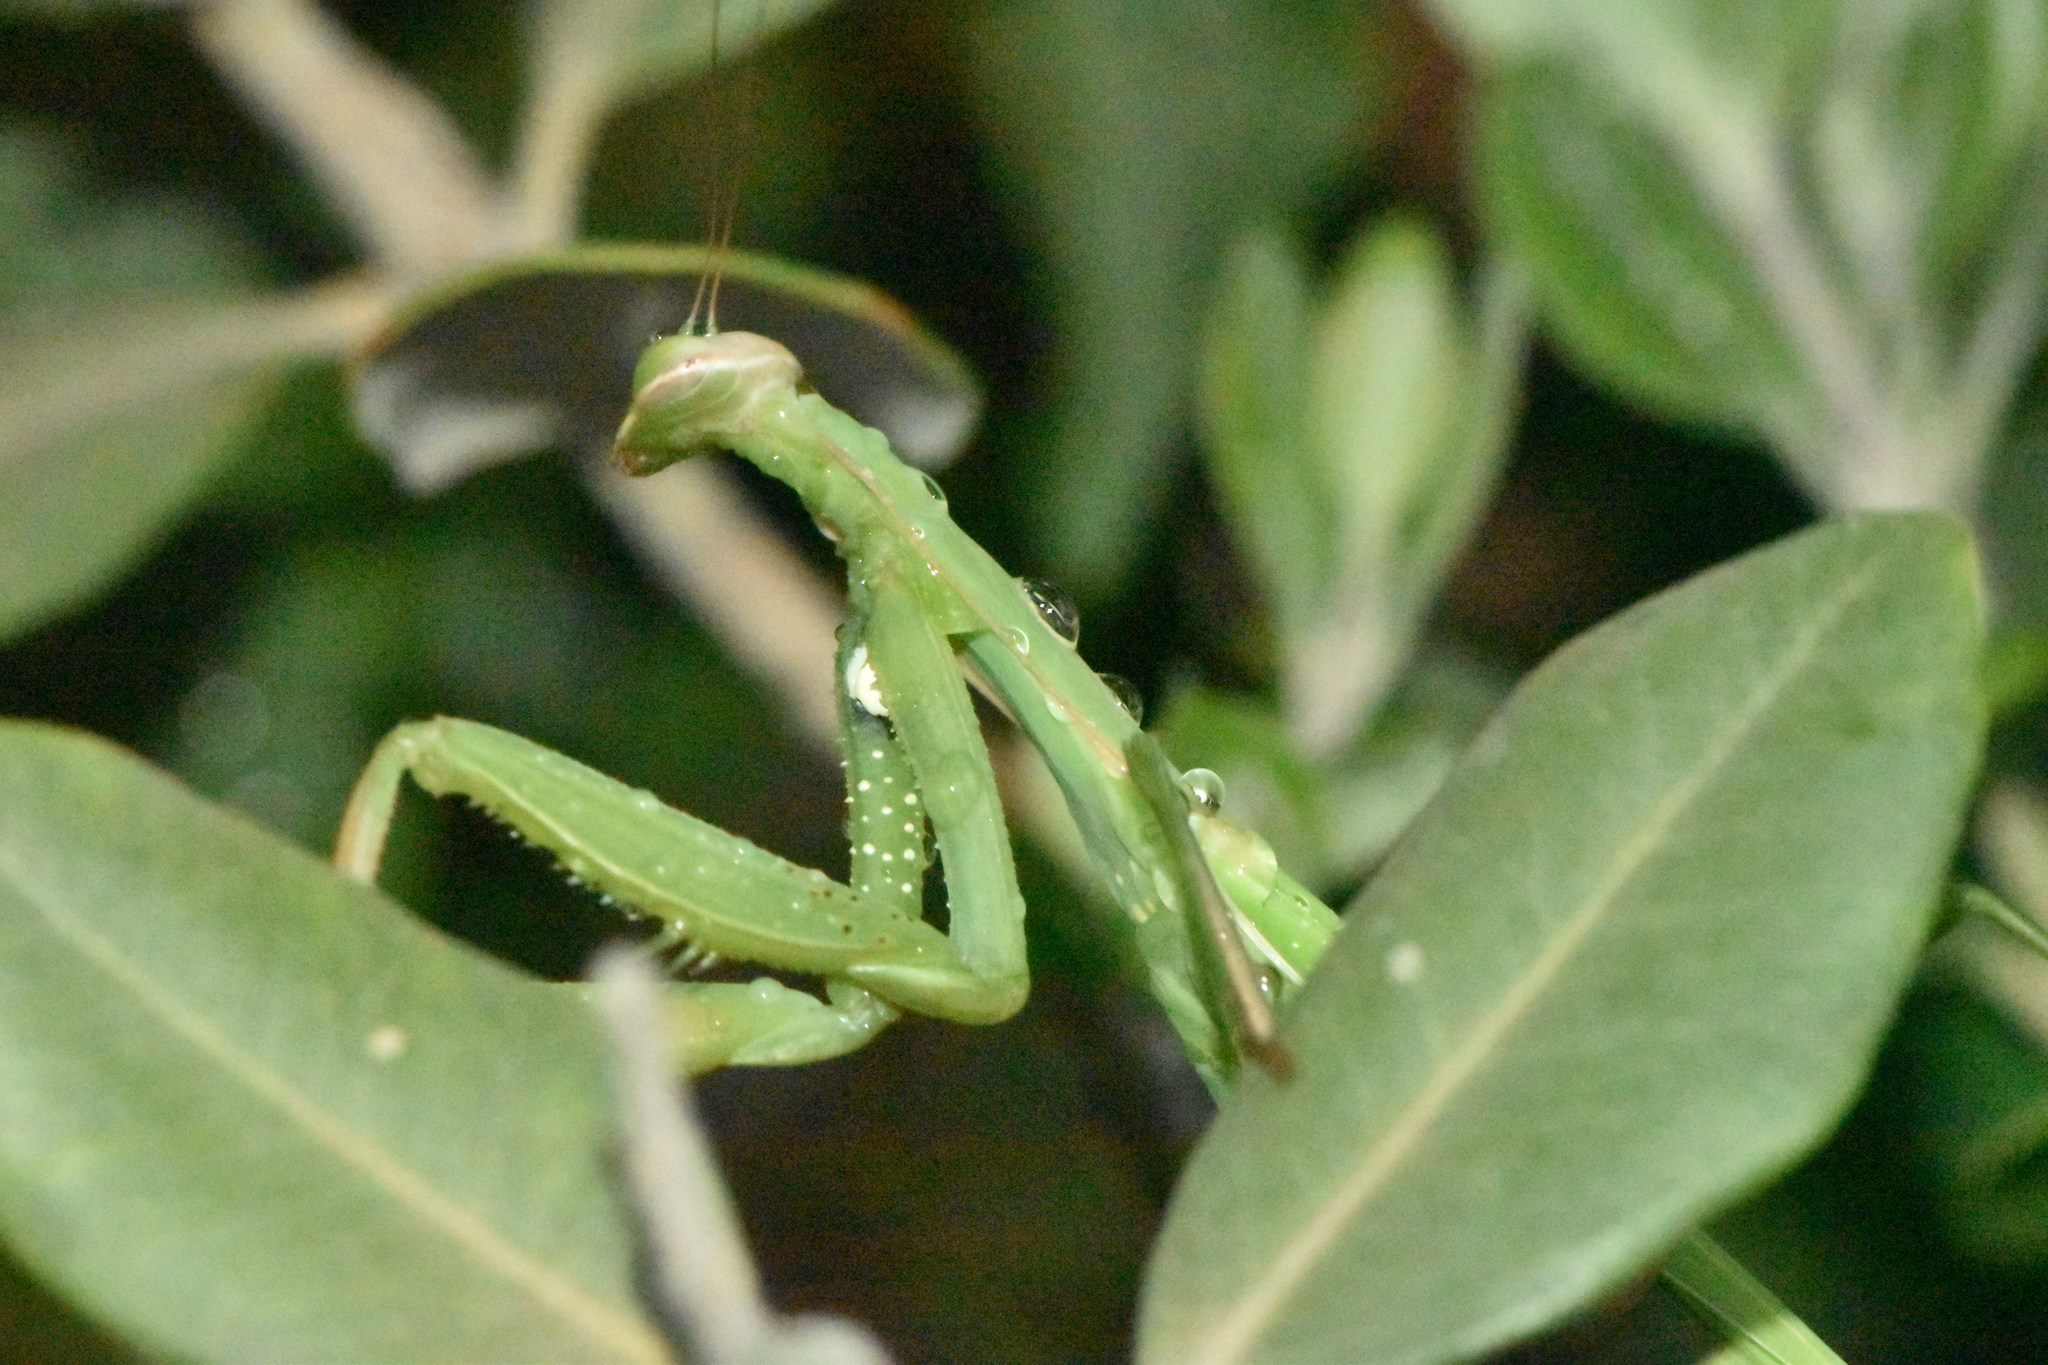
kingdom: Animalia
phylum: Arthropoda
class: Insecta
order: Mantodea
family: Mantidae
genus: Mantis
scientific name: Mantis religiosa
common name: Praying mantis
